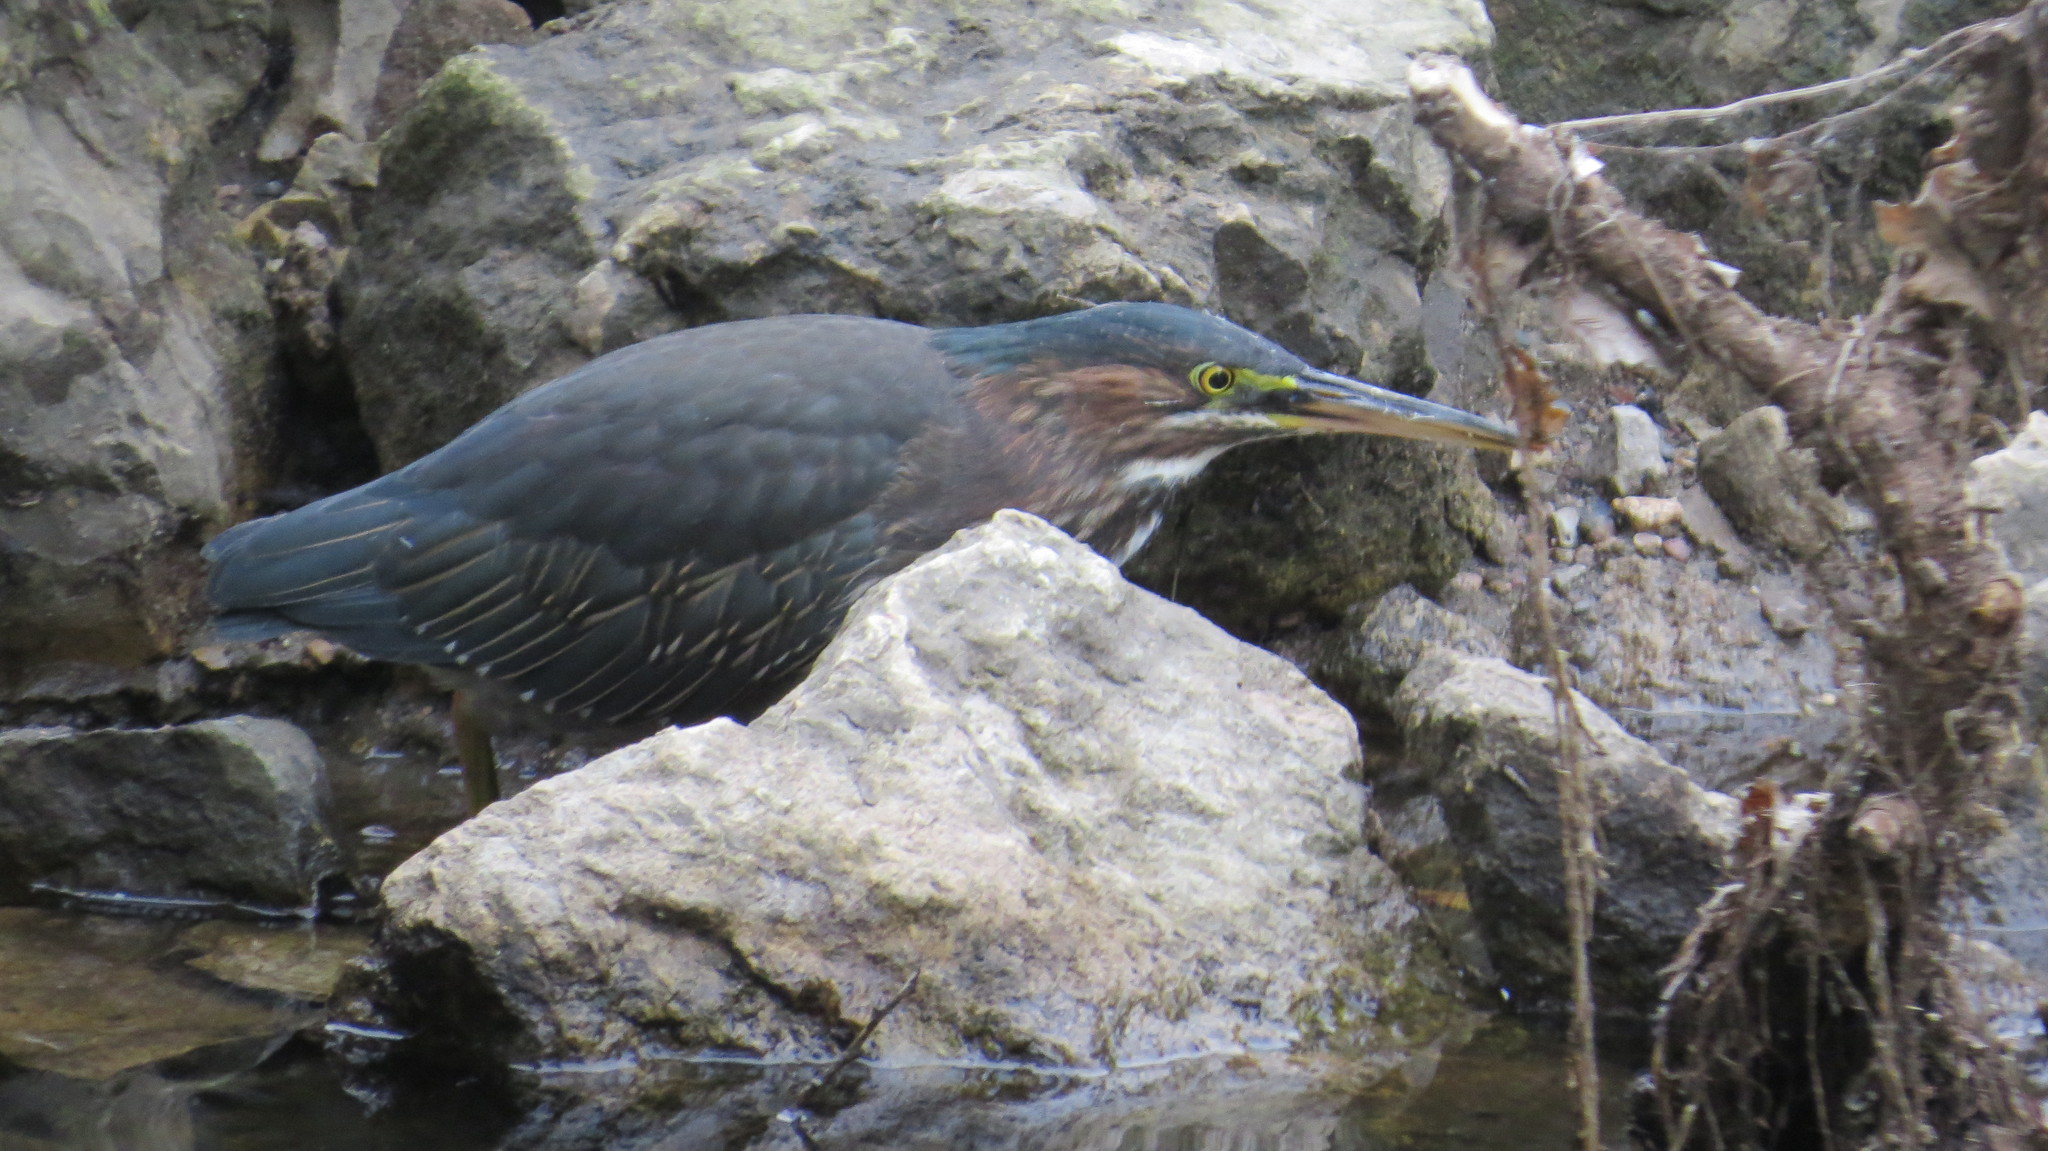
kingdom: Animalia
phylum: Chordata
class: Aves
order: Pelecaniformes
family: Ardeidae
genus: Butorides
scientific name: Butorides virescens
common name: Green heron
